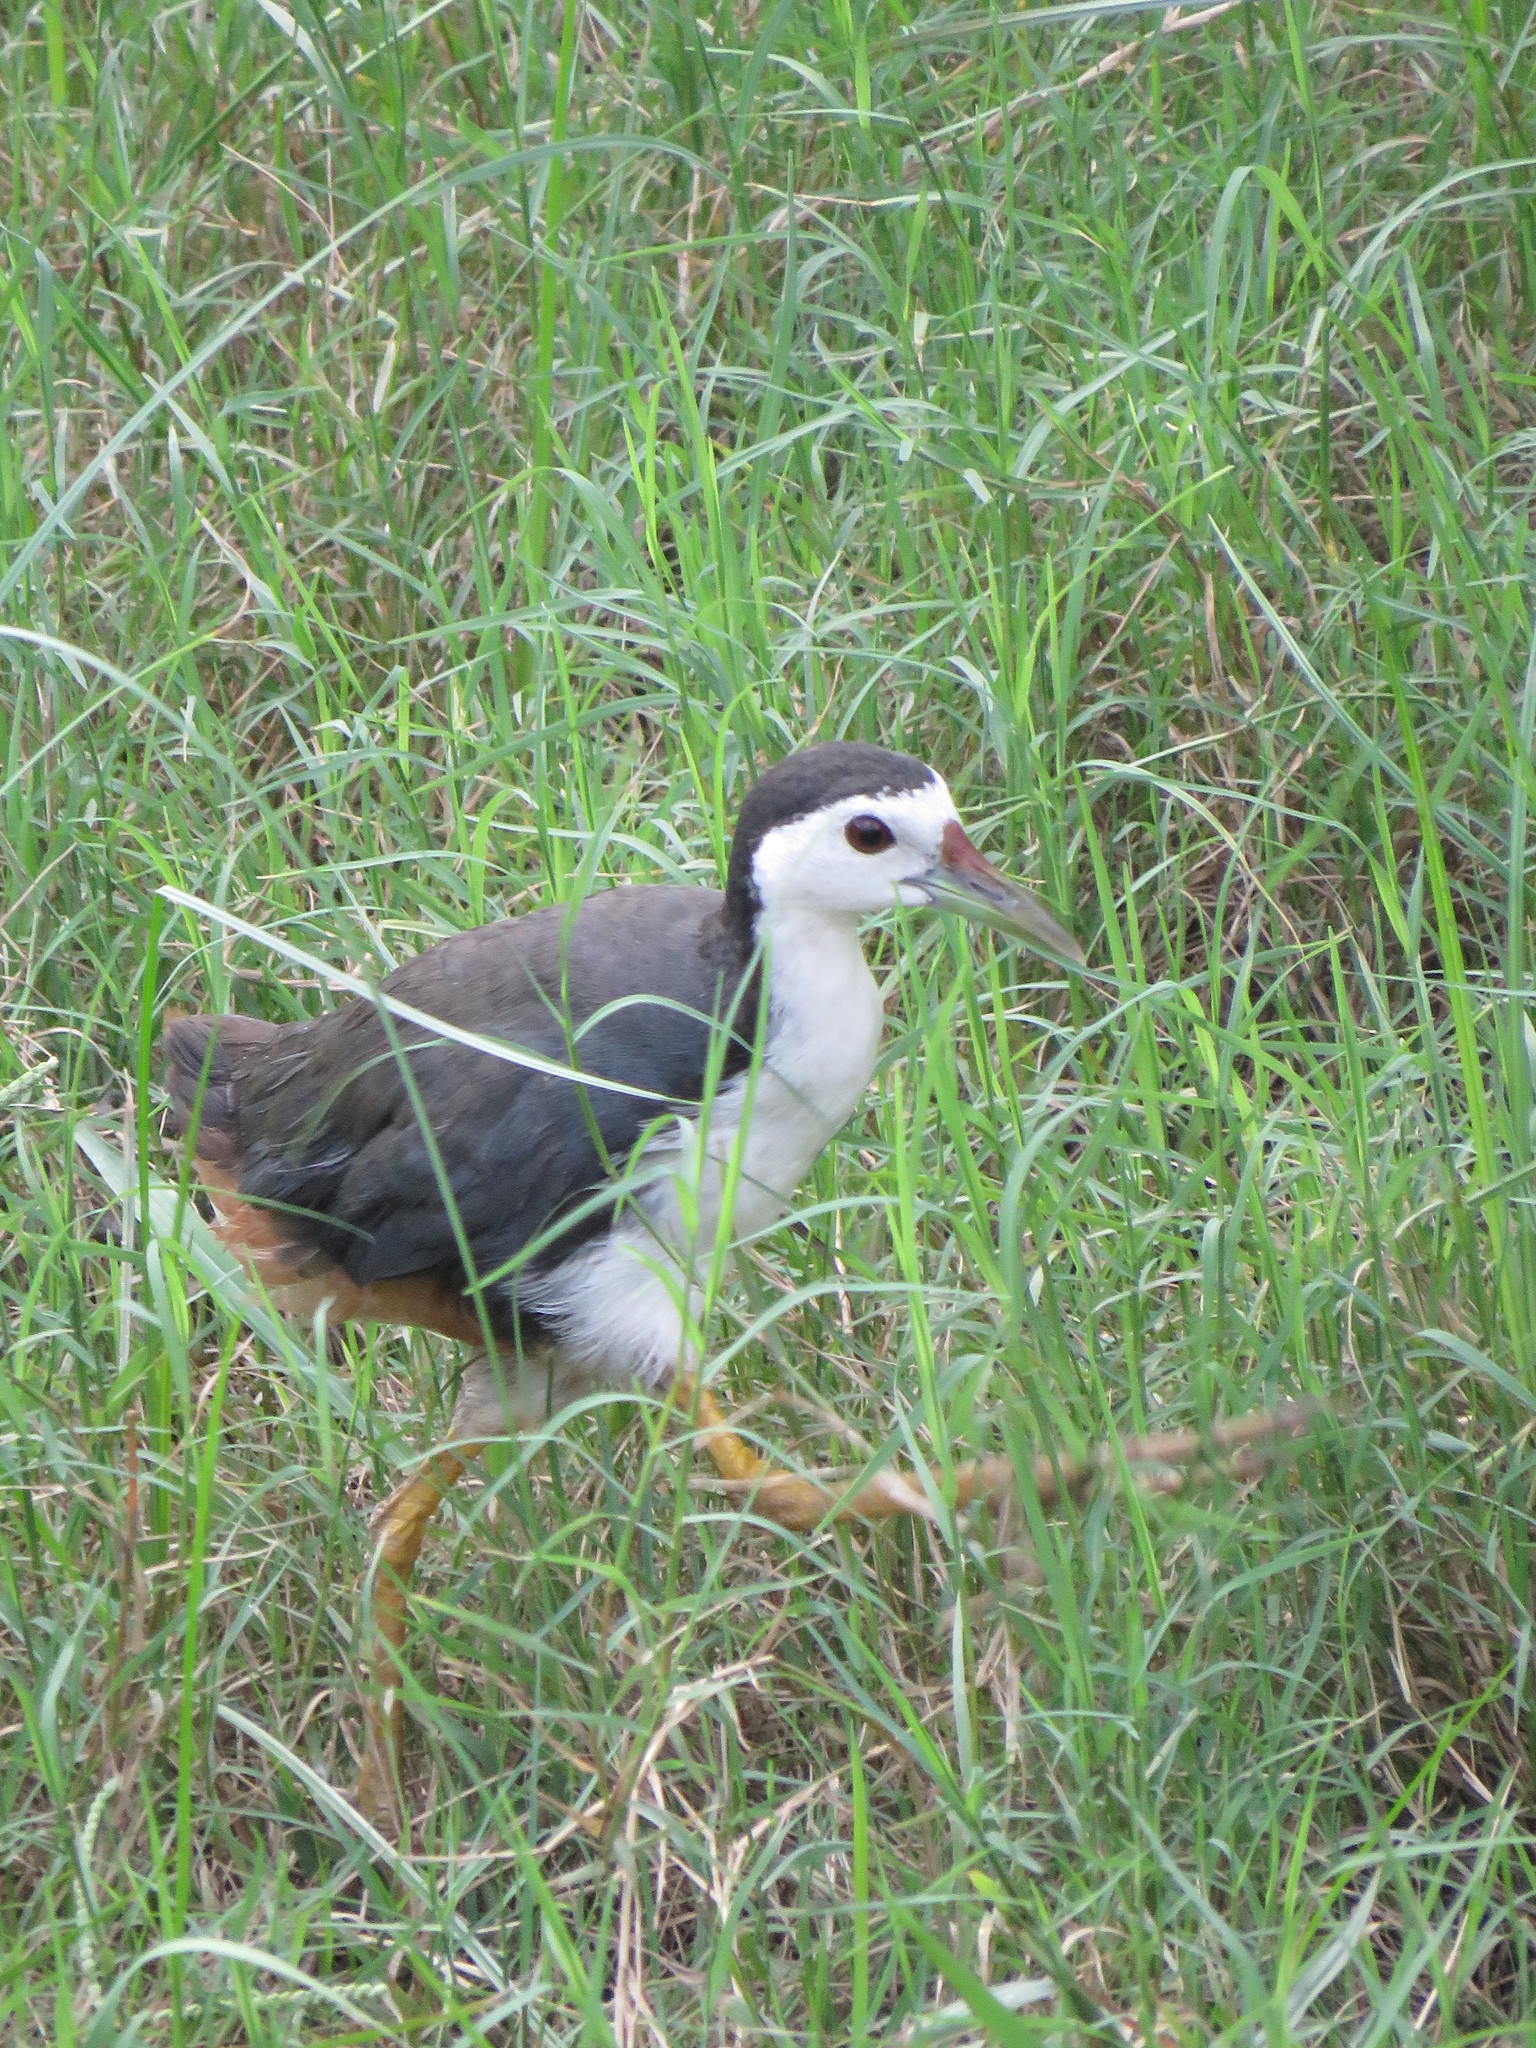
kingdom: Animalia
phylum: Chordata
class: Aves
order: Gruiformes
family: Rallidae
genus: Amaurornis
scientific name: Amaurornis phoenicurus
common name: White-breasted waterhen
